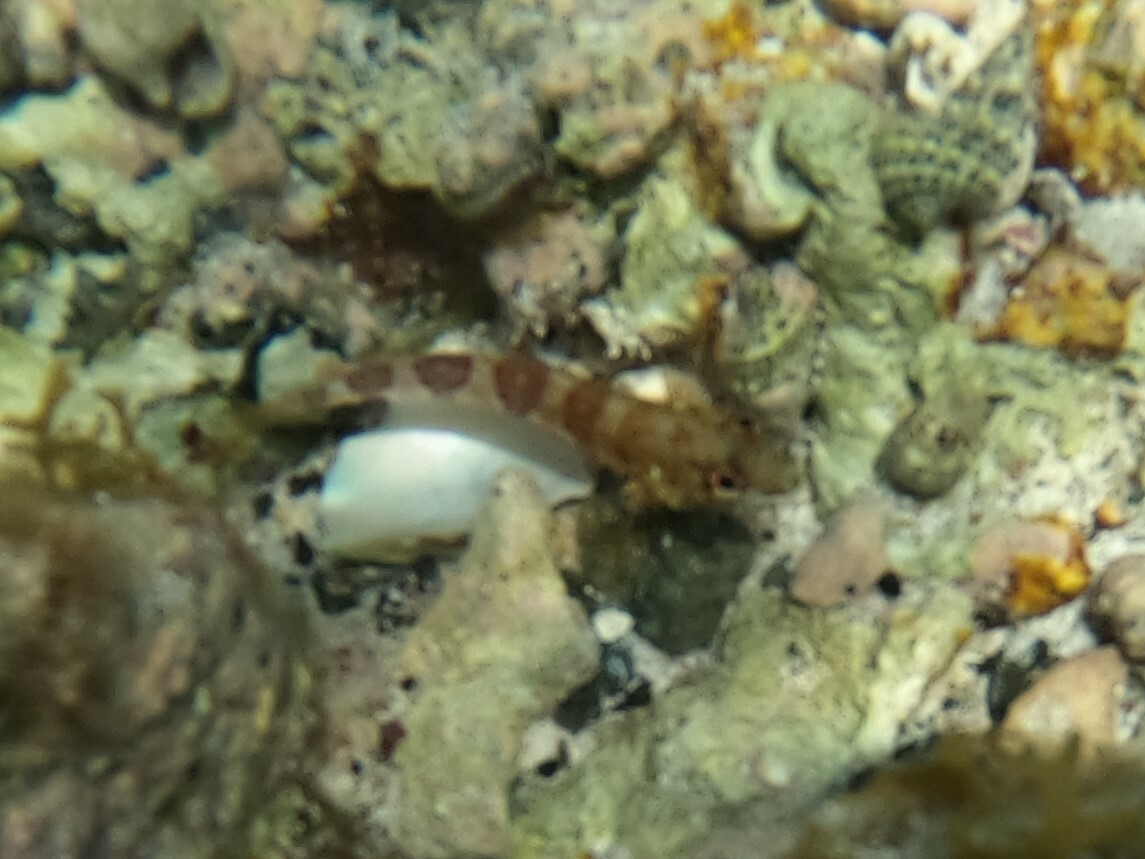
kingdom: Animalia
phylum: Chordata
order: Perciformes
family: Labrisomidae
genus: Malacoctenus
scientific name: Malacoctenus triangulatus
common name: Saddled blenny
